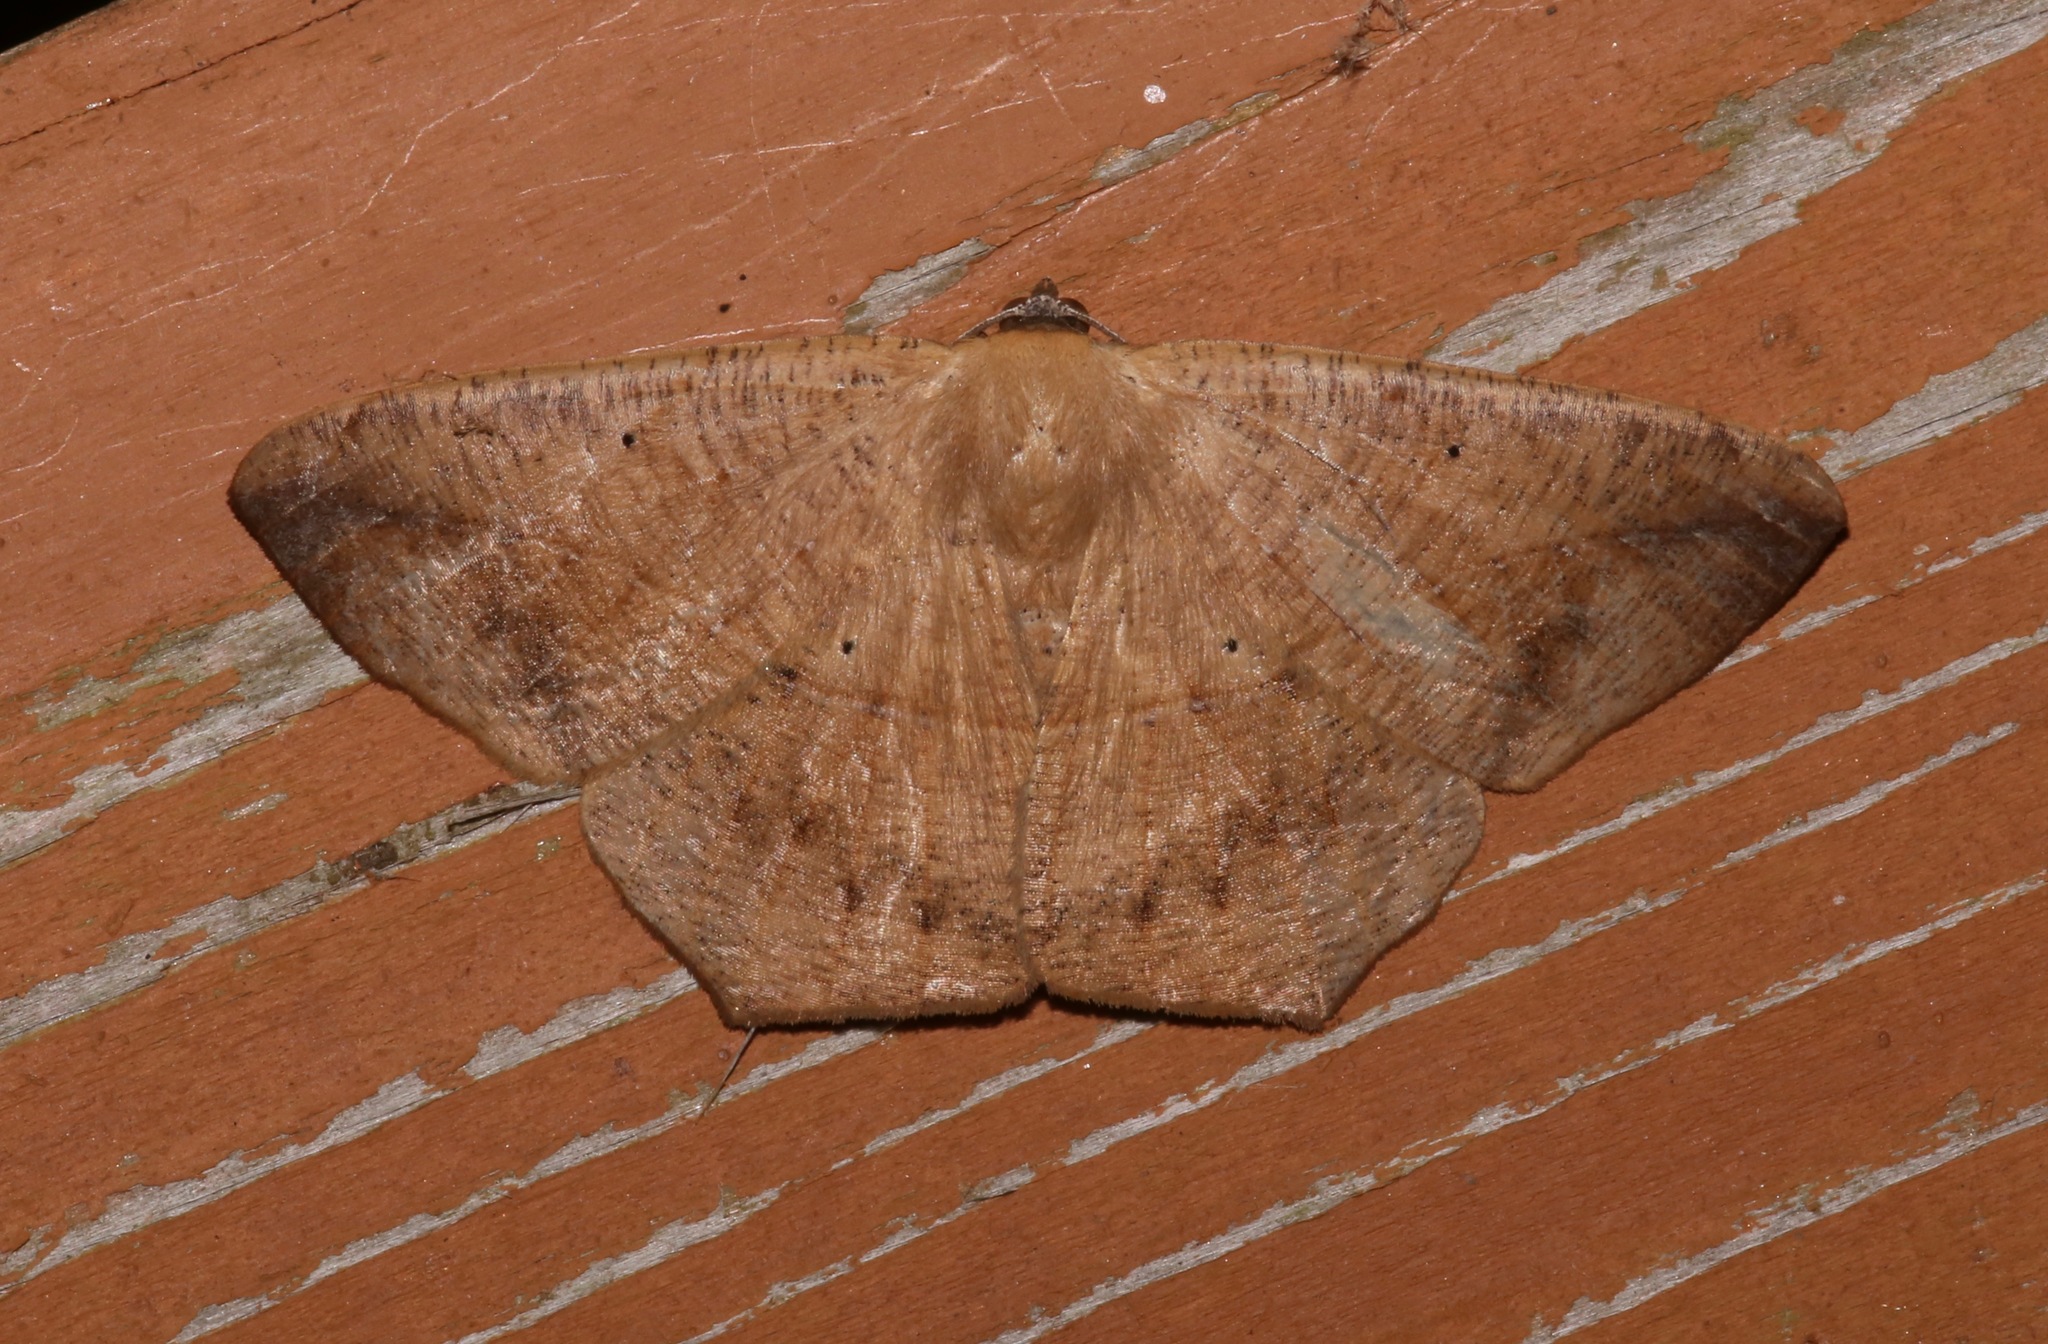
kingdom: Animalia
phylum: Arthropoda
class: Insecta
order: Lepidoptera
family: Geometridae
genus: Prochoerodes
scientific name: Prochoerodes lineola
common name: Large maple spanworm
